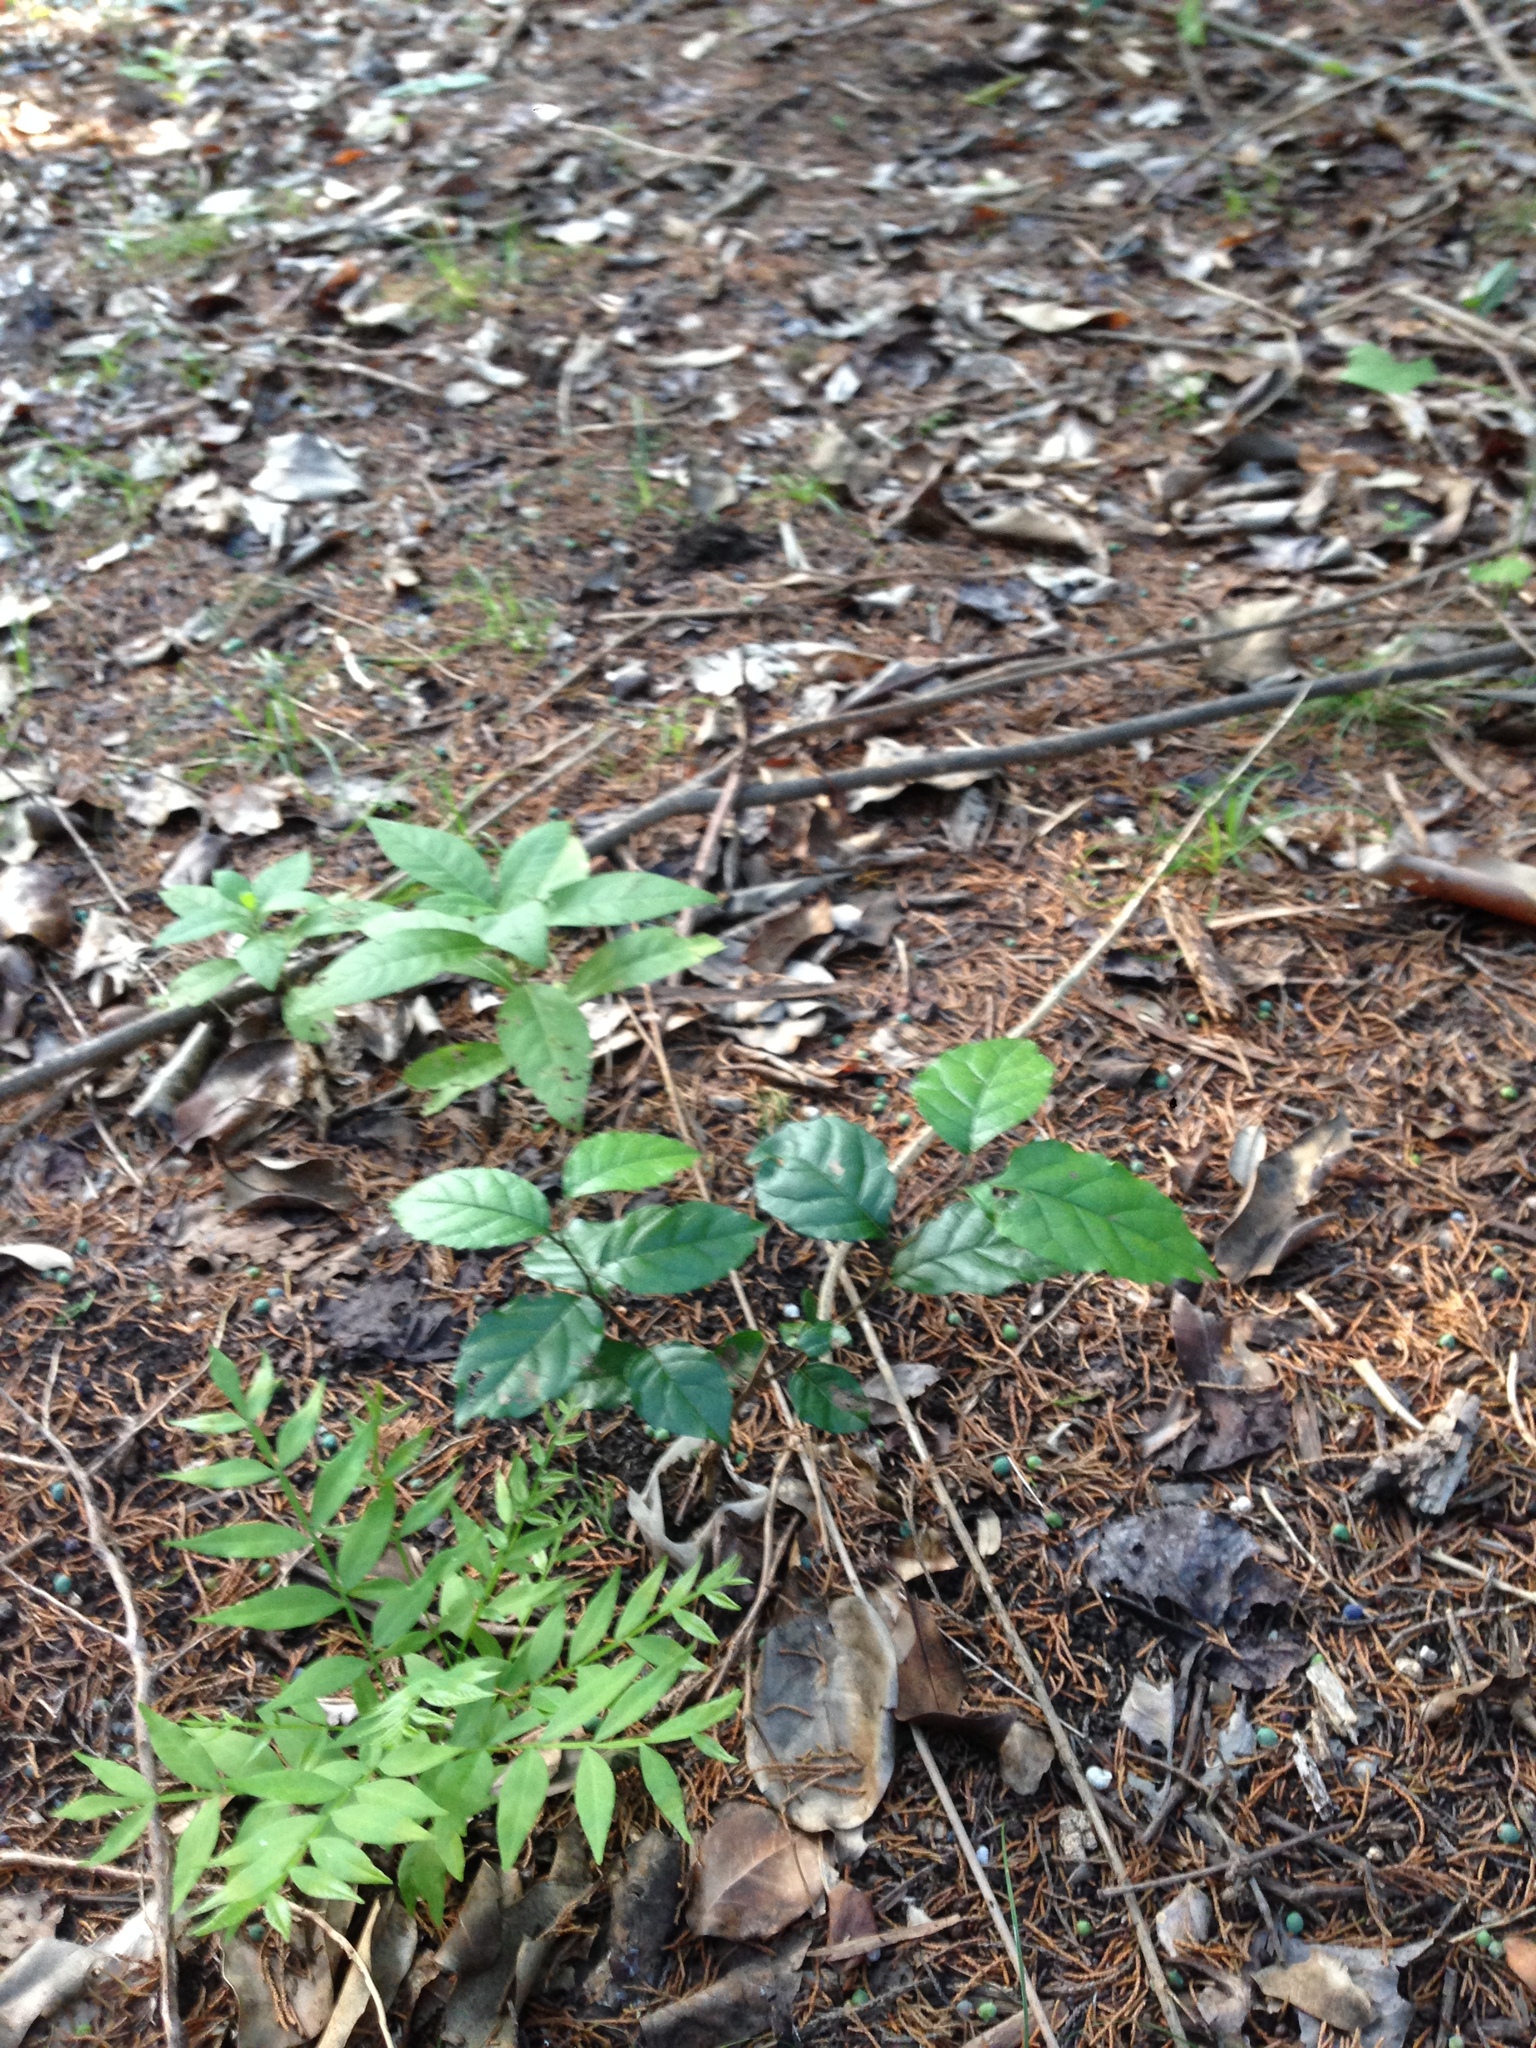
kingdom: Plantae
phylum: Tracheophyta
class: Magnoliopsida
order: Sapindales
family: Sapindaceae
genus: Sapindus
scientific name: Sapindus drummondii
